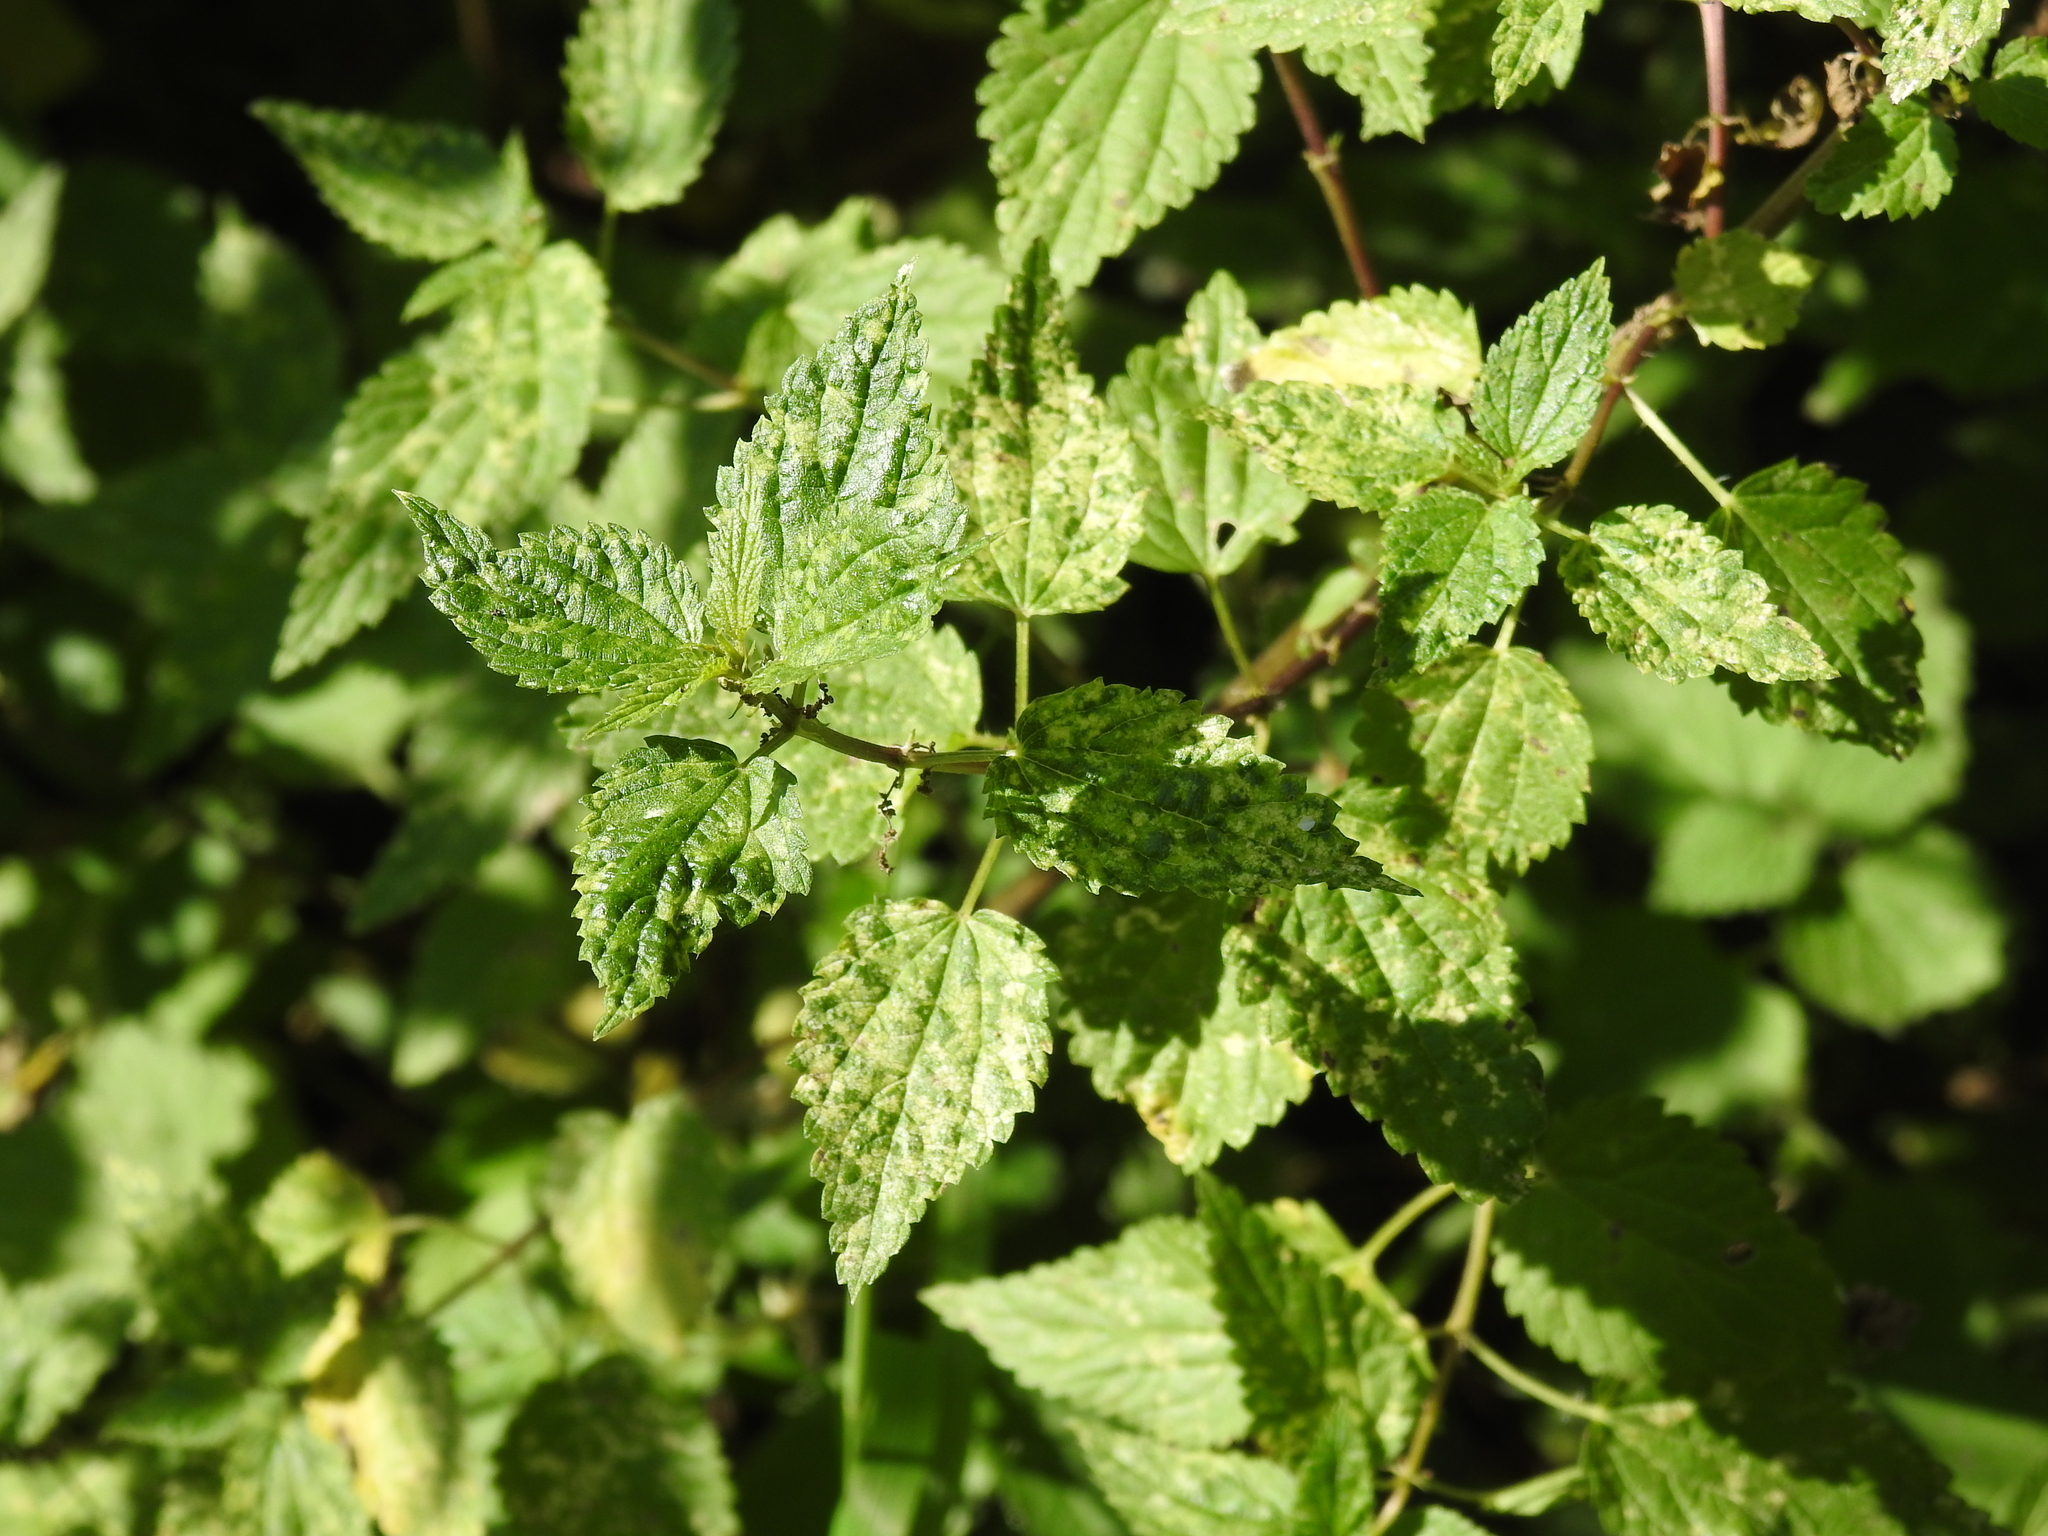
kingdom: Plantae
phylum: Tracheophyta
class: Magnoliopsida
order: Rosales
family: Urticaceae
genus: Urtica
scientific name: Urtica dioica
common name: Common nettle
